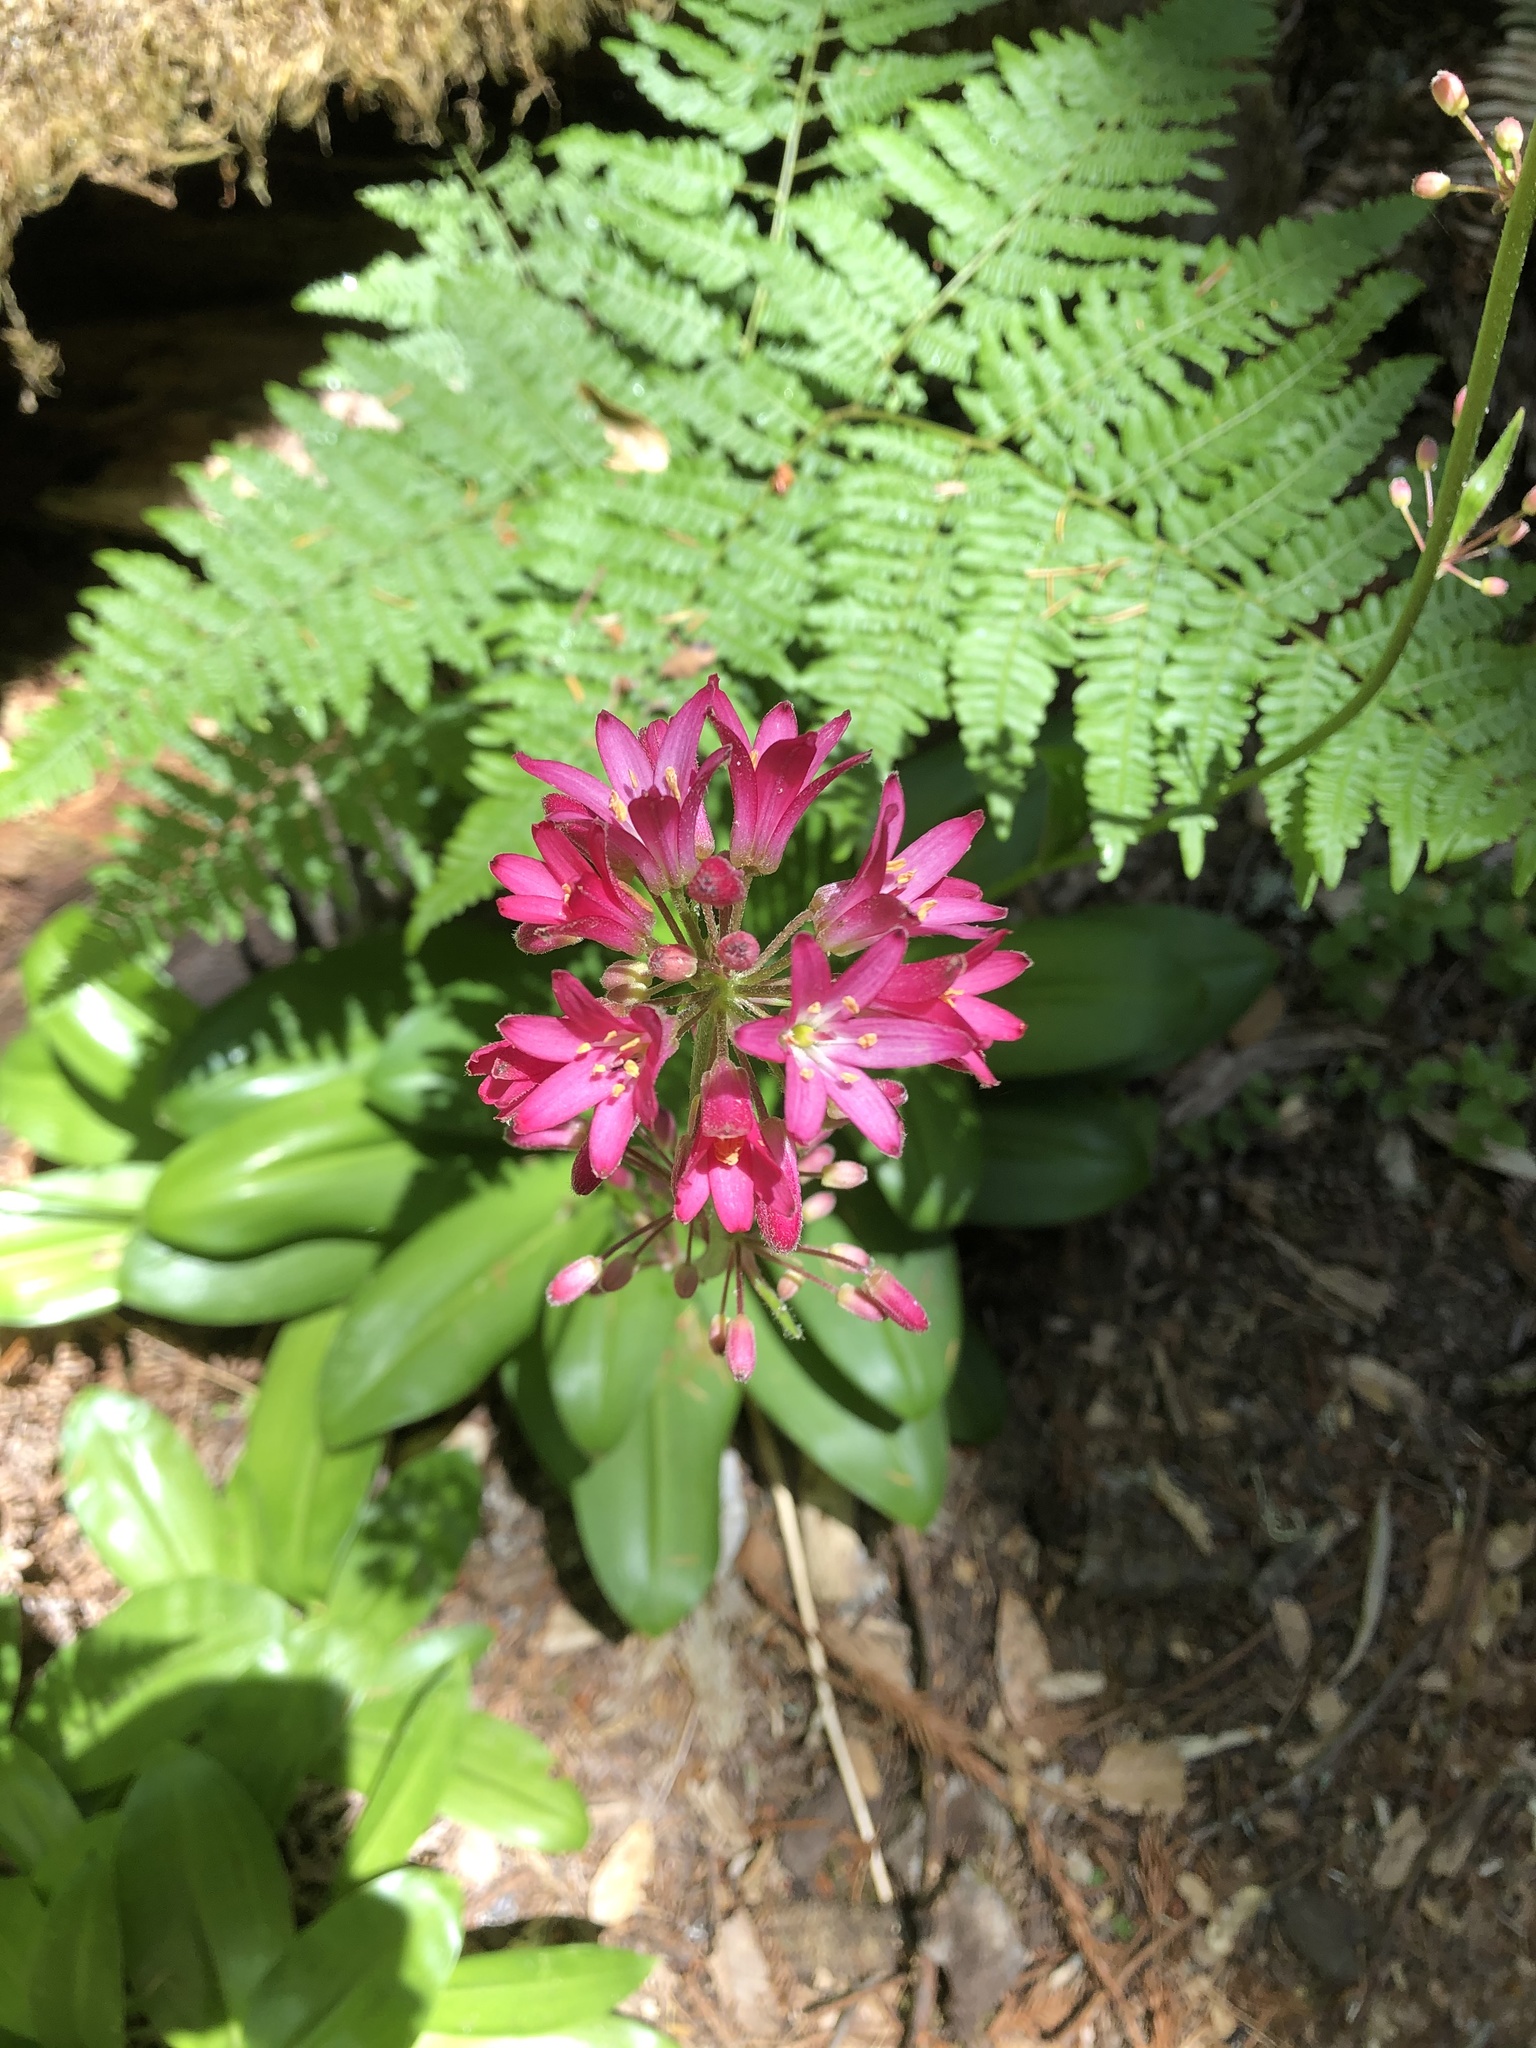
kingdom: Plantae
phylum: Tracheophyta
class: Liliopsida
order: Liliales
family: Liliaceae
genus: Clintonia
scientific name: Clintonia andrewsiana
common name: Red clintonia
